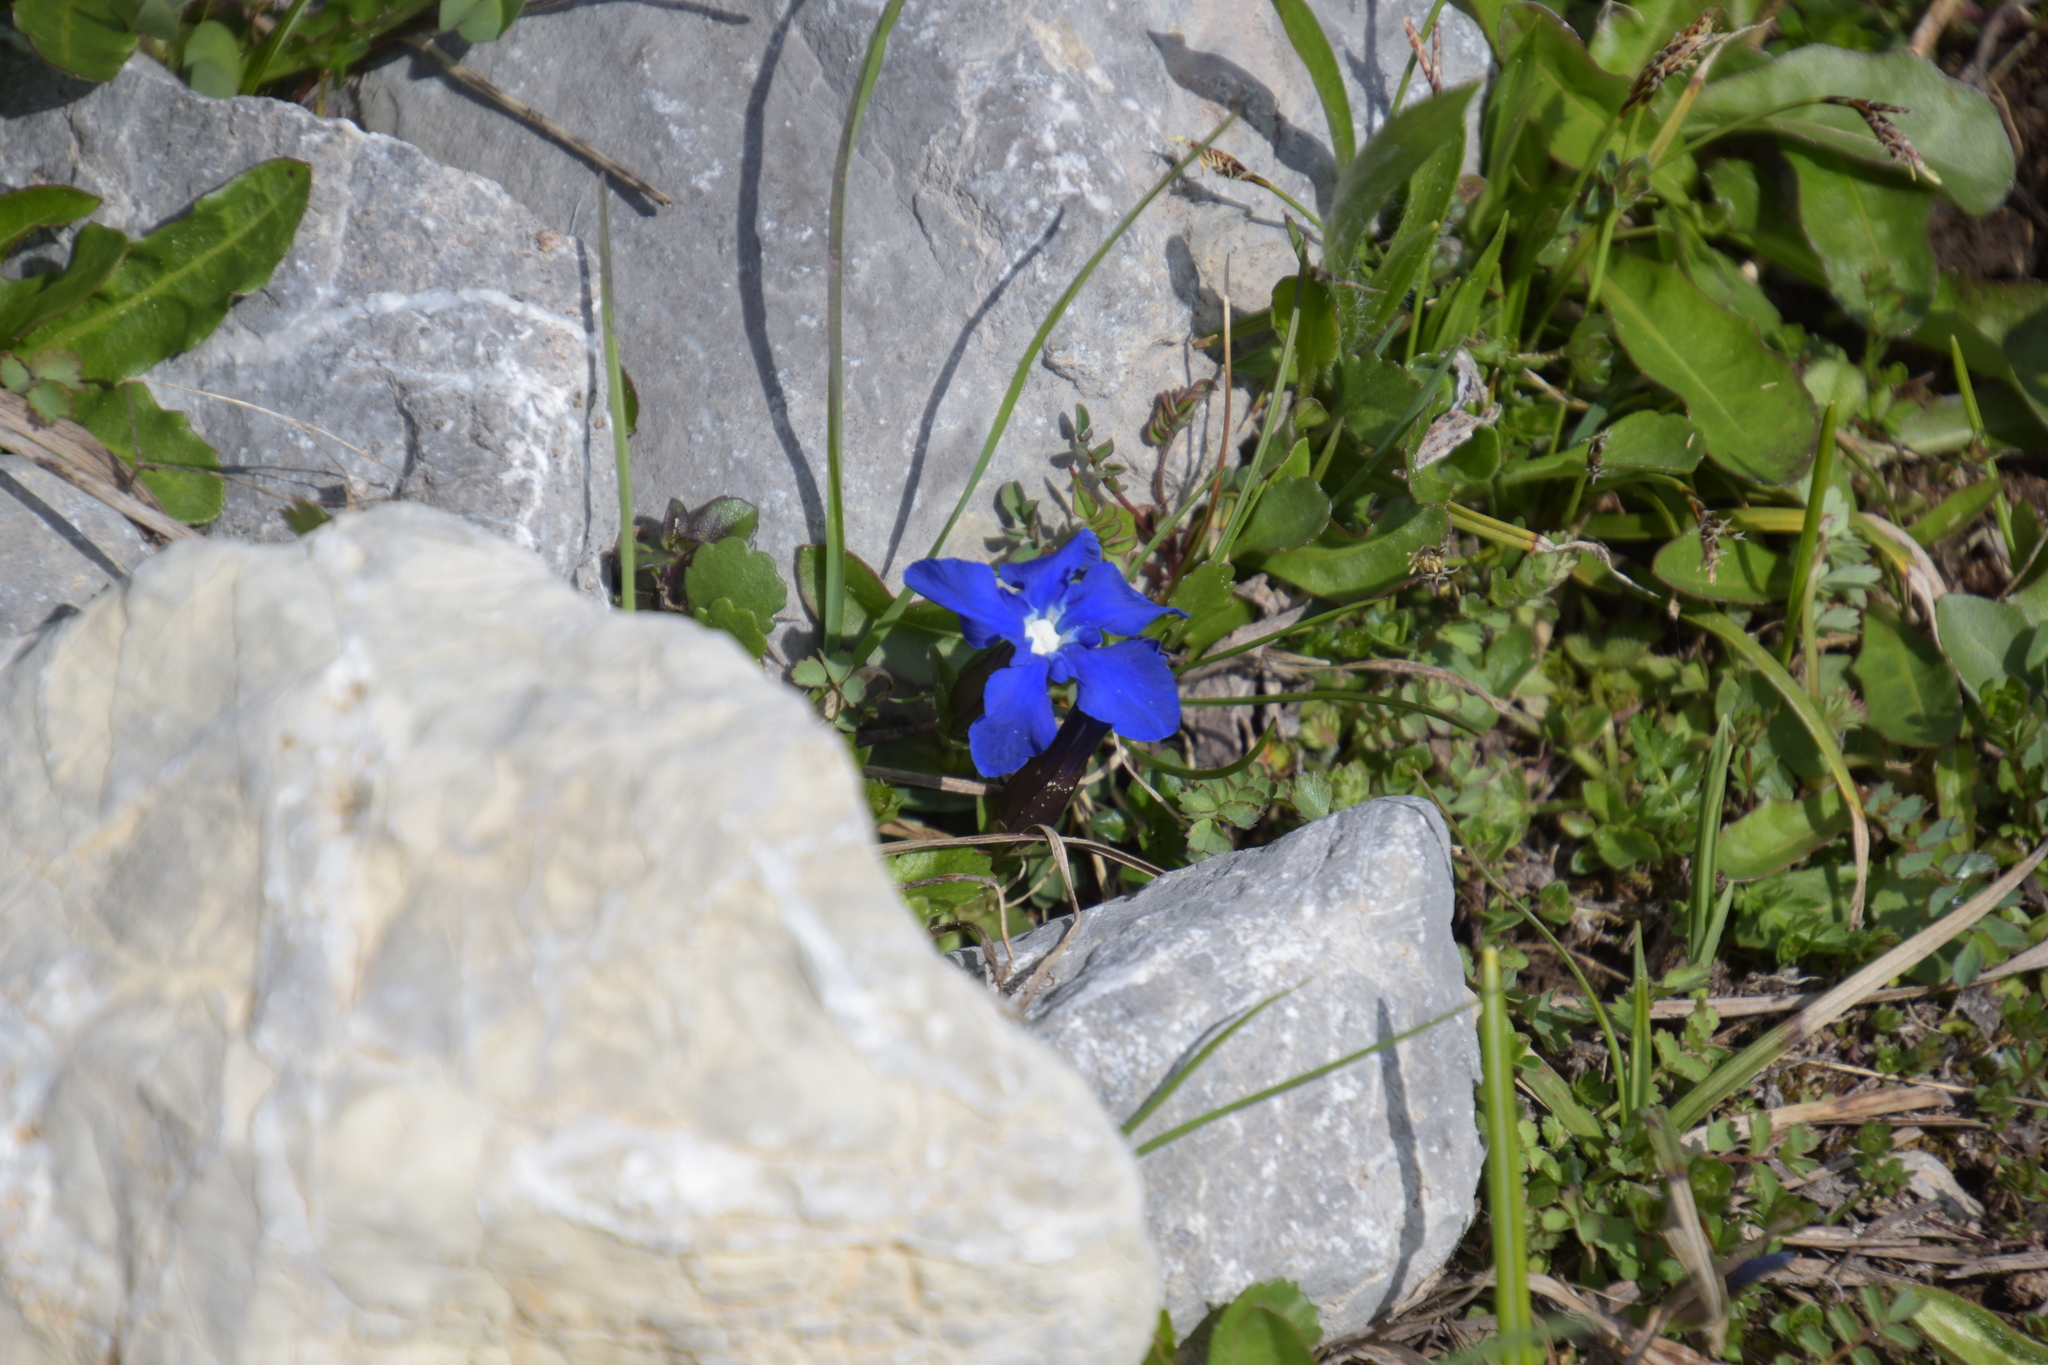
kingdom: Plantae
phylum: Tracheophyta
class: Magnoliopsida
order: Gentianales
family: Gentianaceae
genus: Gentiana
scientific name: Gentiana verna
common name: Spring gentian
